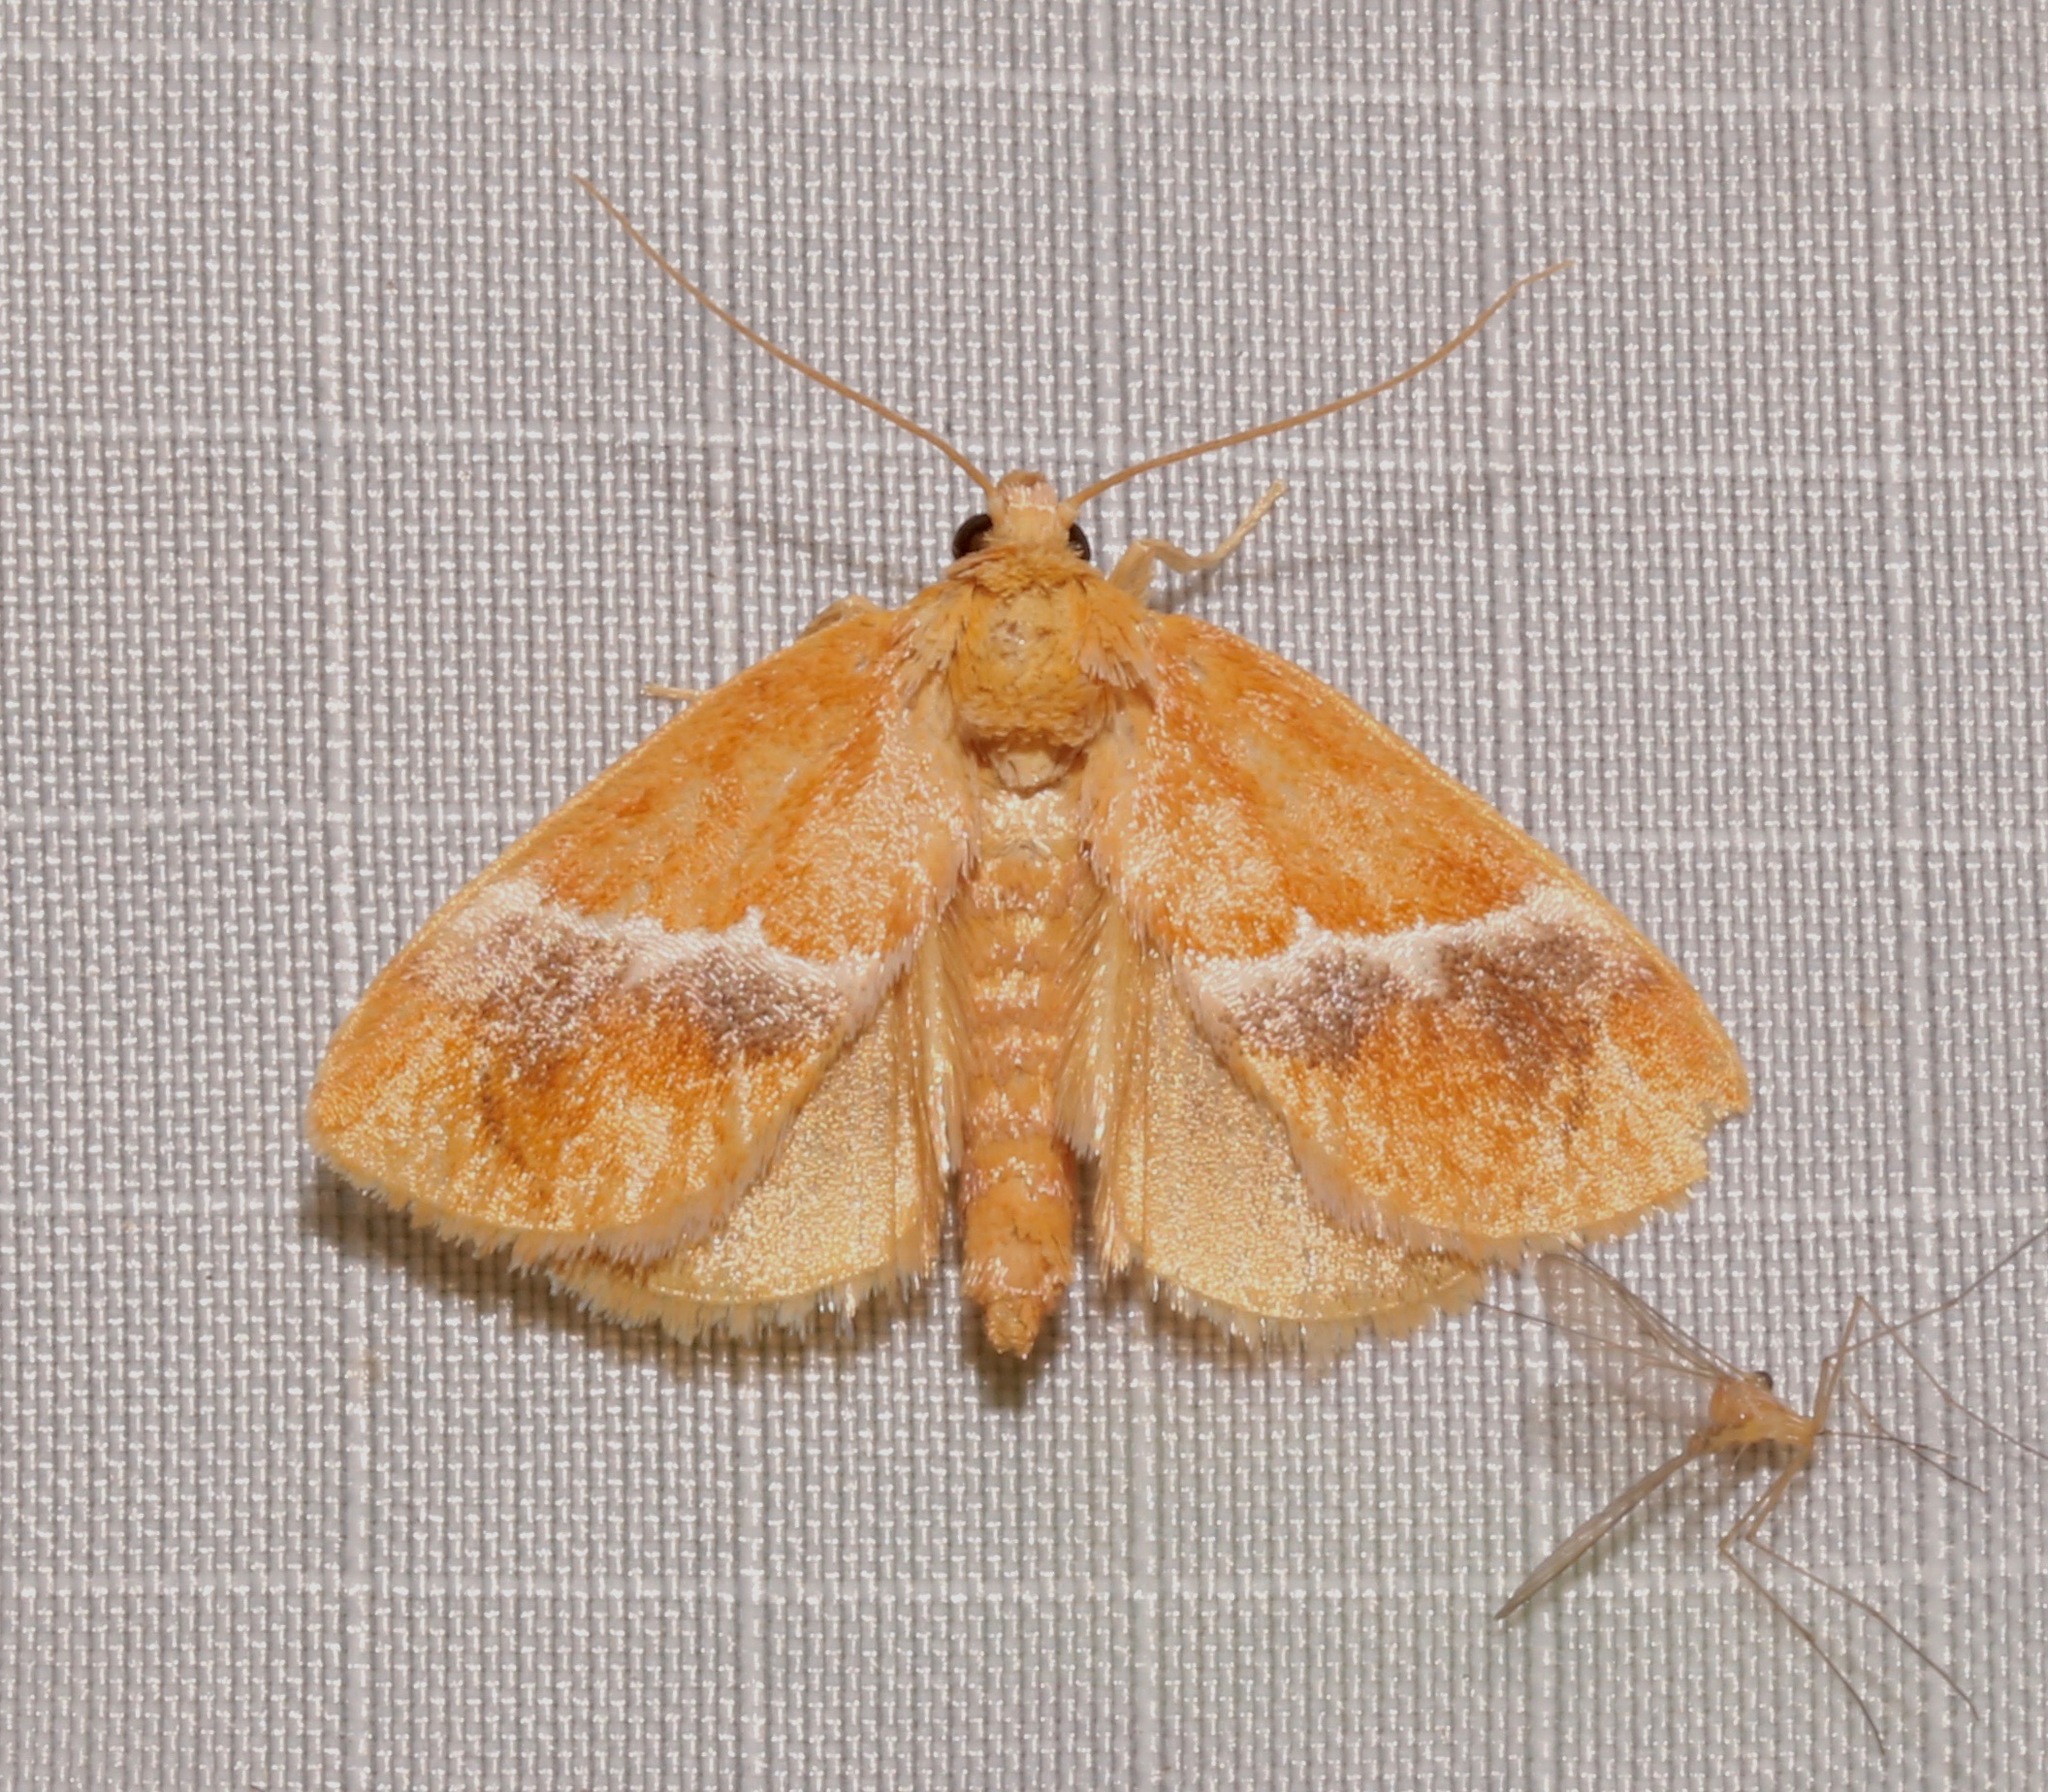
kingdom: Animalia
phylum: Arthropoda
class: Insecta
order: Lepidoptera
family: Limacodidae
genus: Lithacodes
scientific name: Lithacodes fasciola
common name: Yellow-shouldered slug moth
